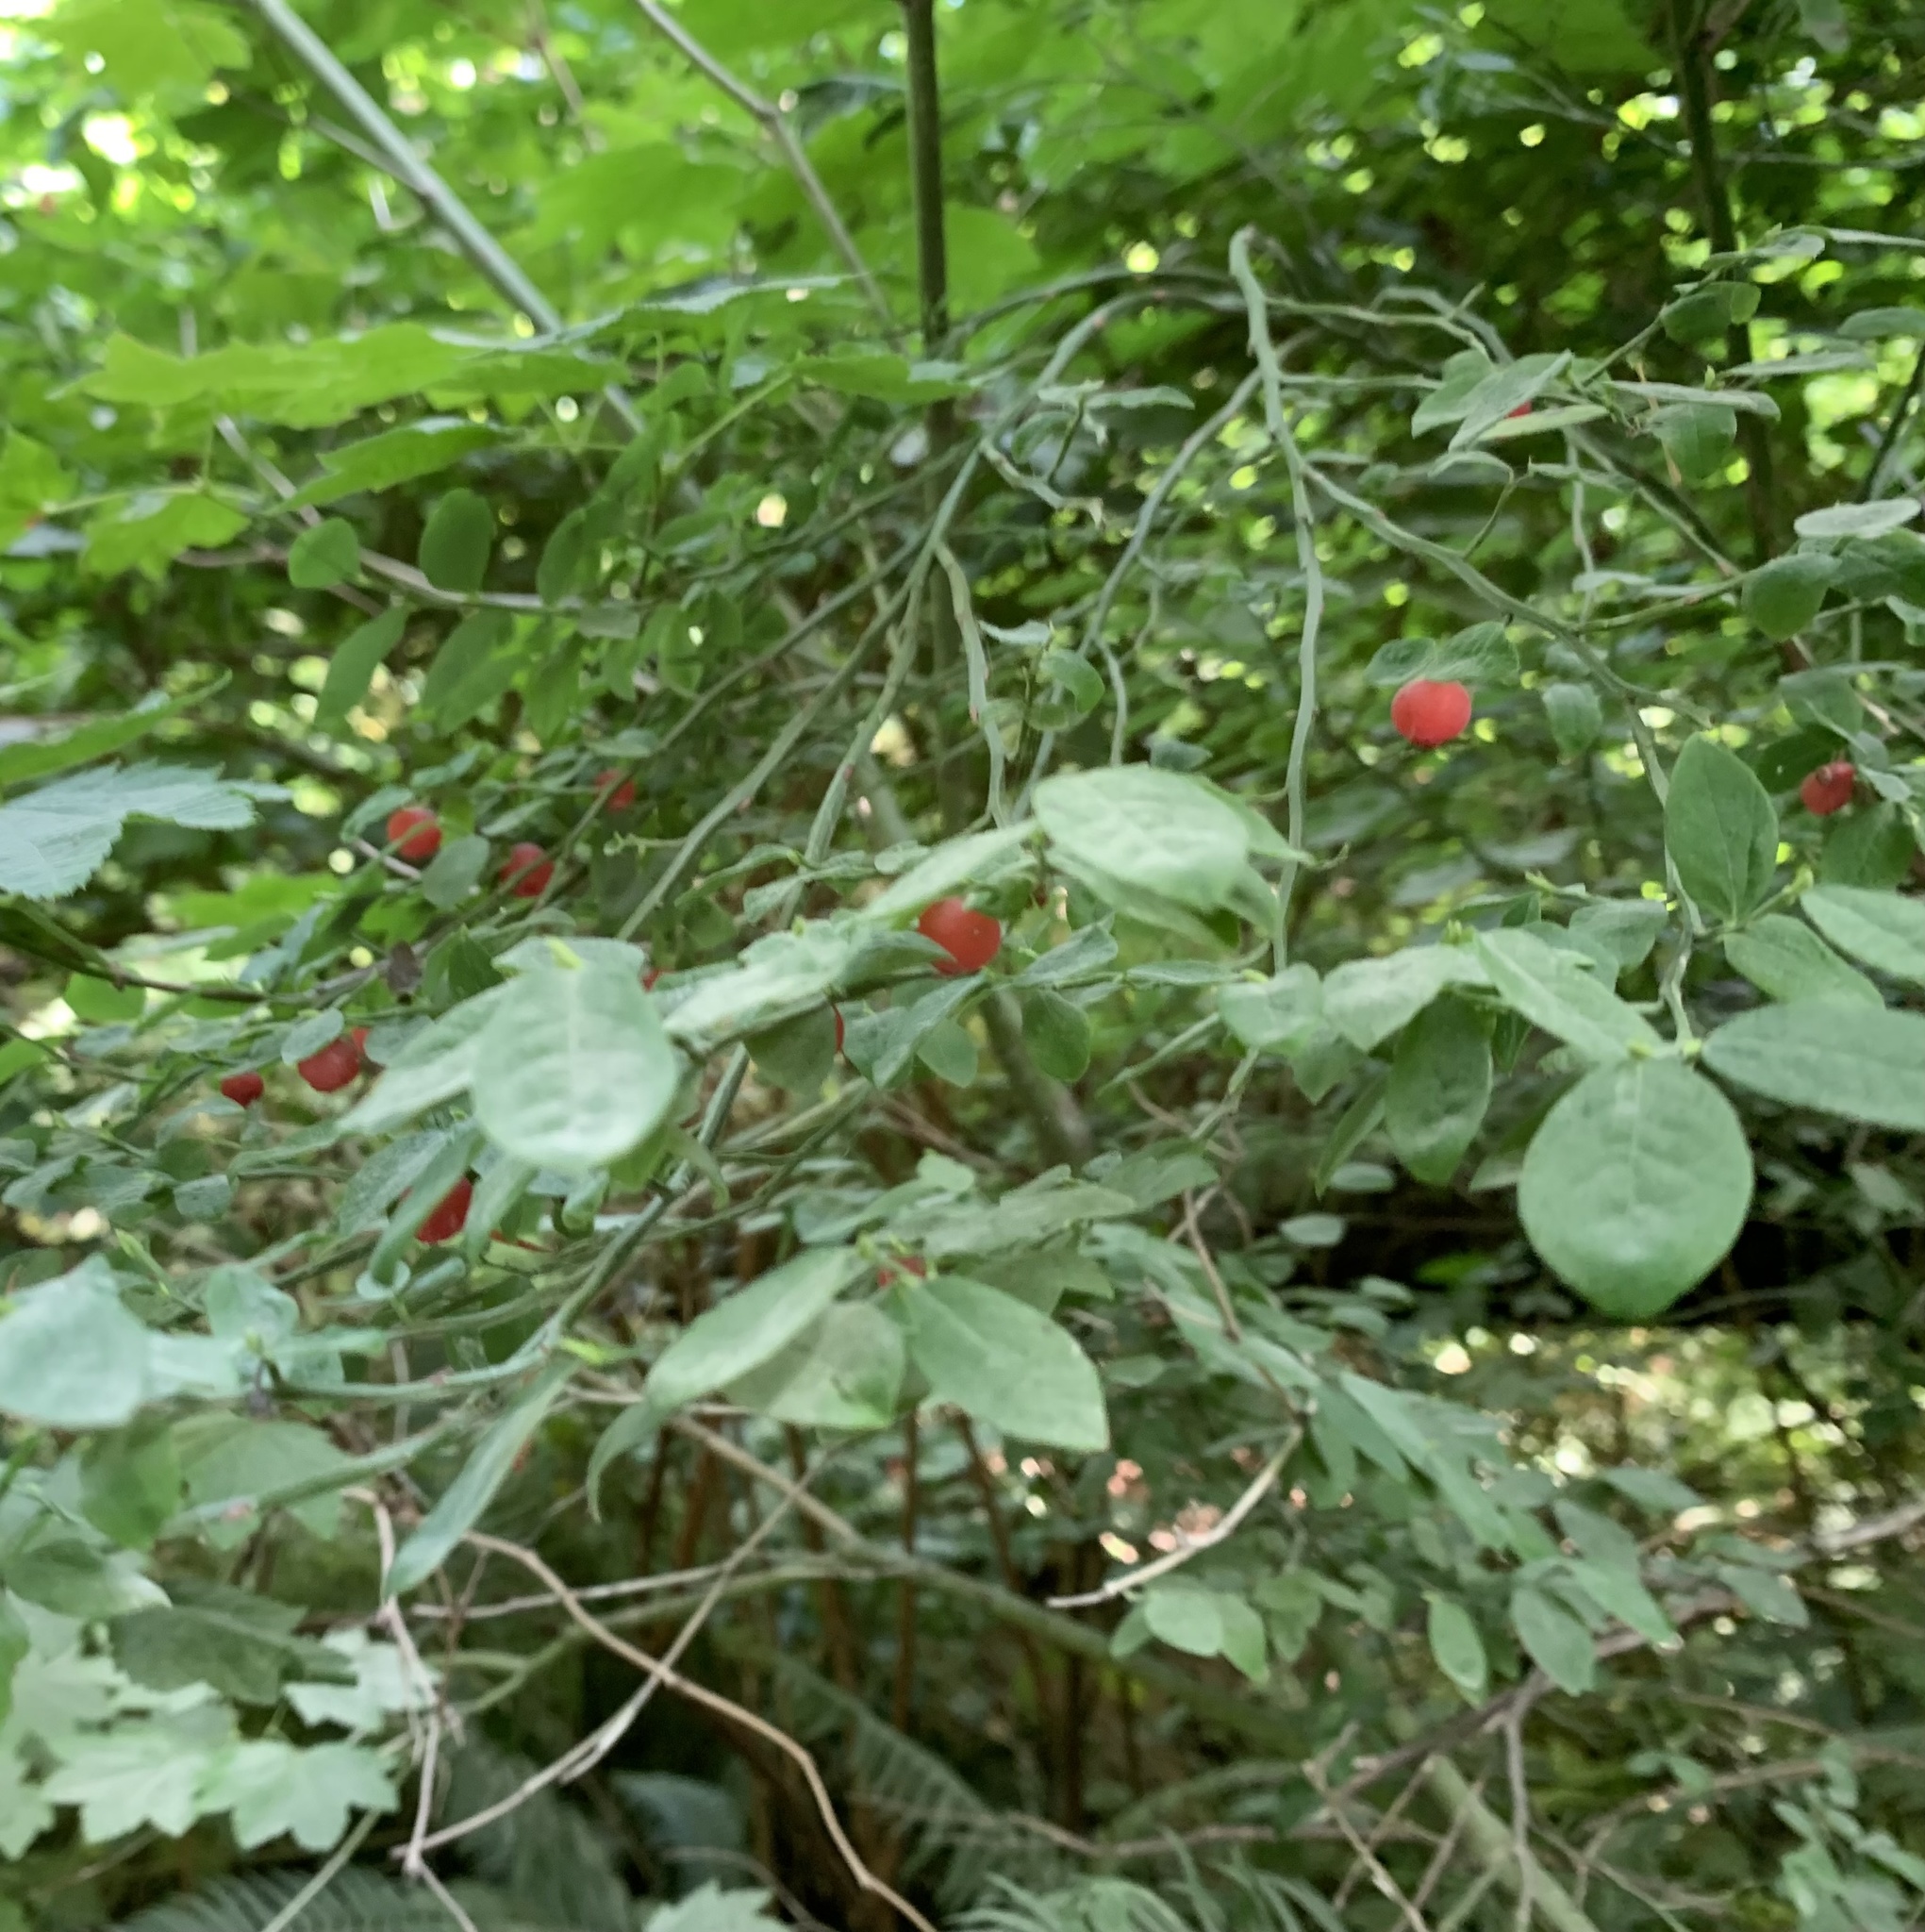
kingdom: Plantae
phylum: Tracheophyta
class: Magnoliopsida
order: Ericales
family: Ericaceae
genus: Vaccinium
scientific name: Vaccinium parvifolium
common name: Red-huckleberry
